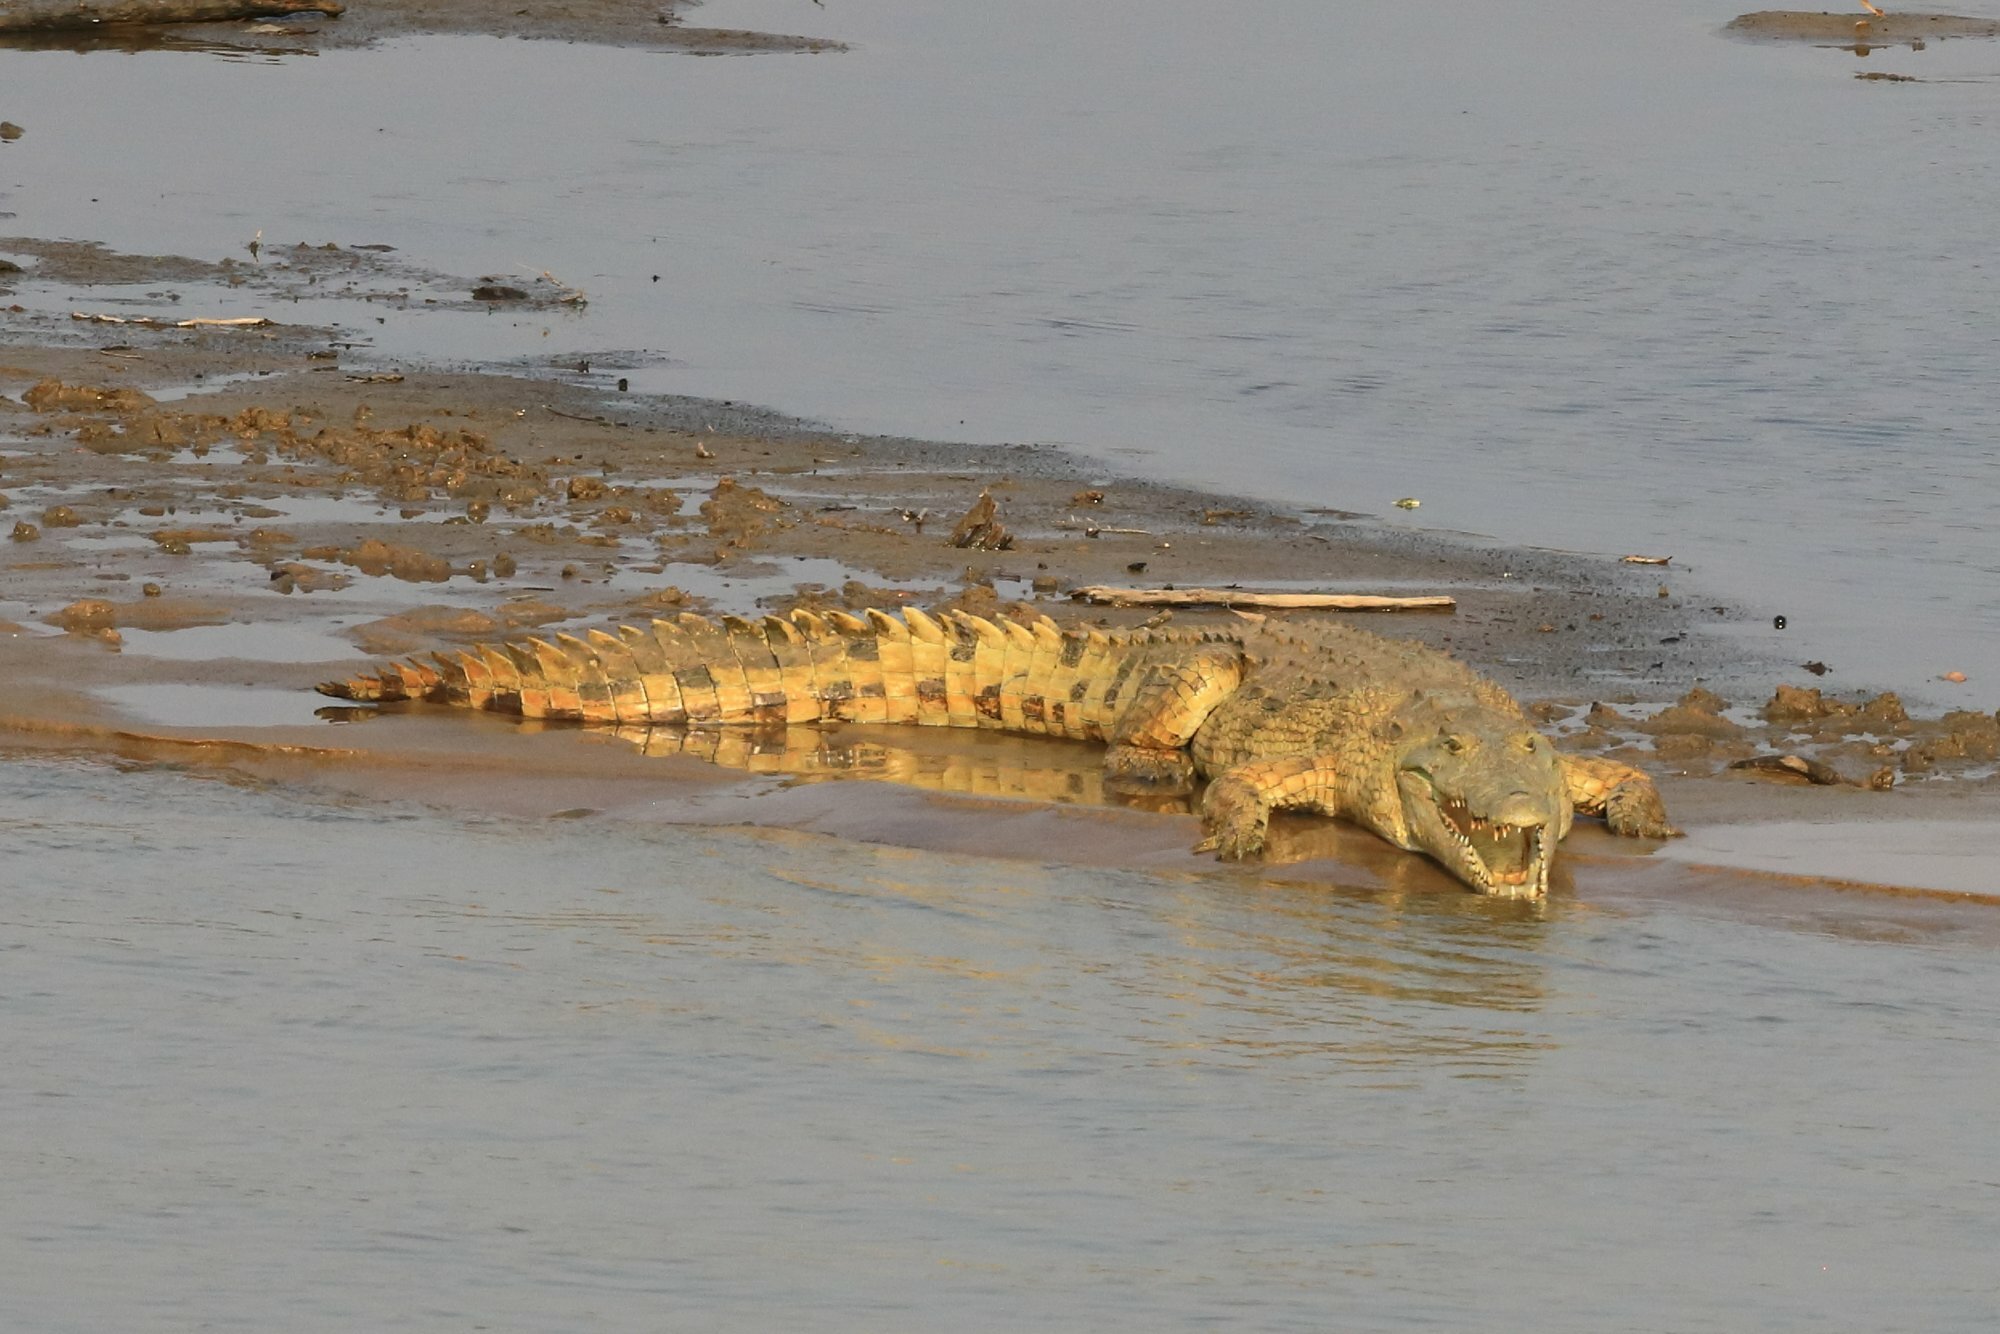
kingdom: Animalia
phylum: Chordata
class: Crocodylia
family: Crocodylidae
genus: Crocodylus
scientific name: Crocodylus niloticus
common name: Nile crocodile
